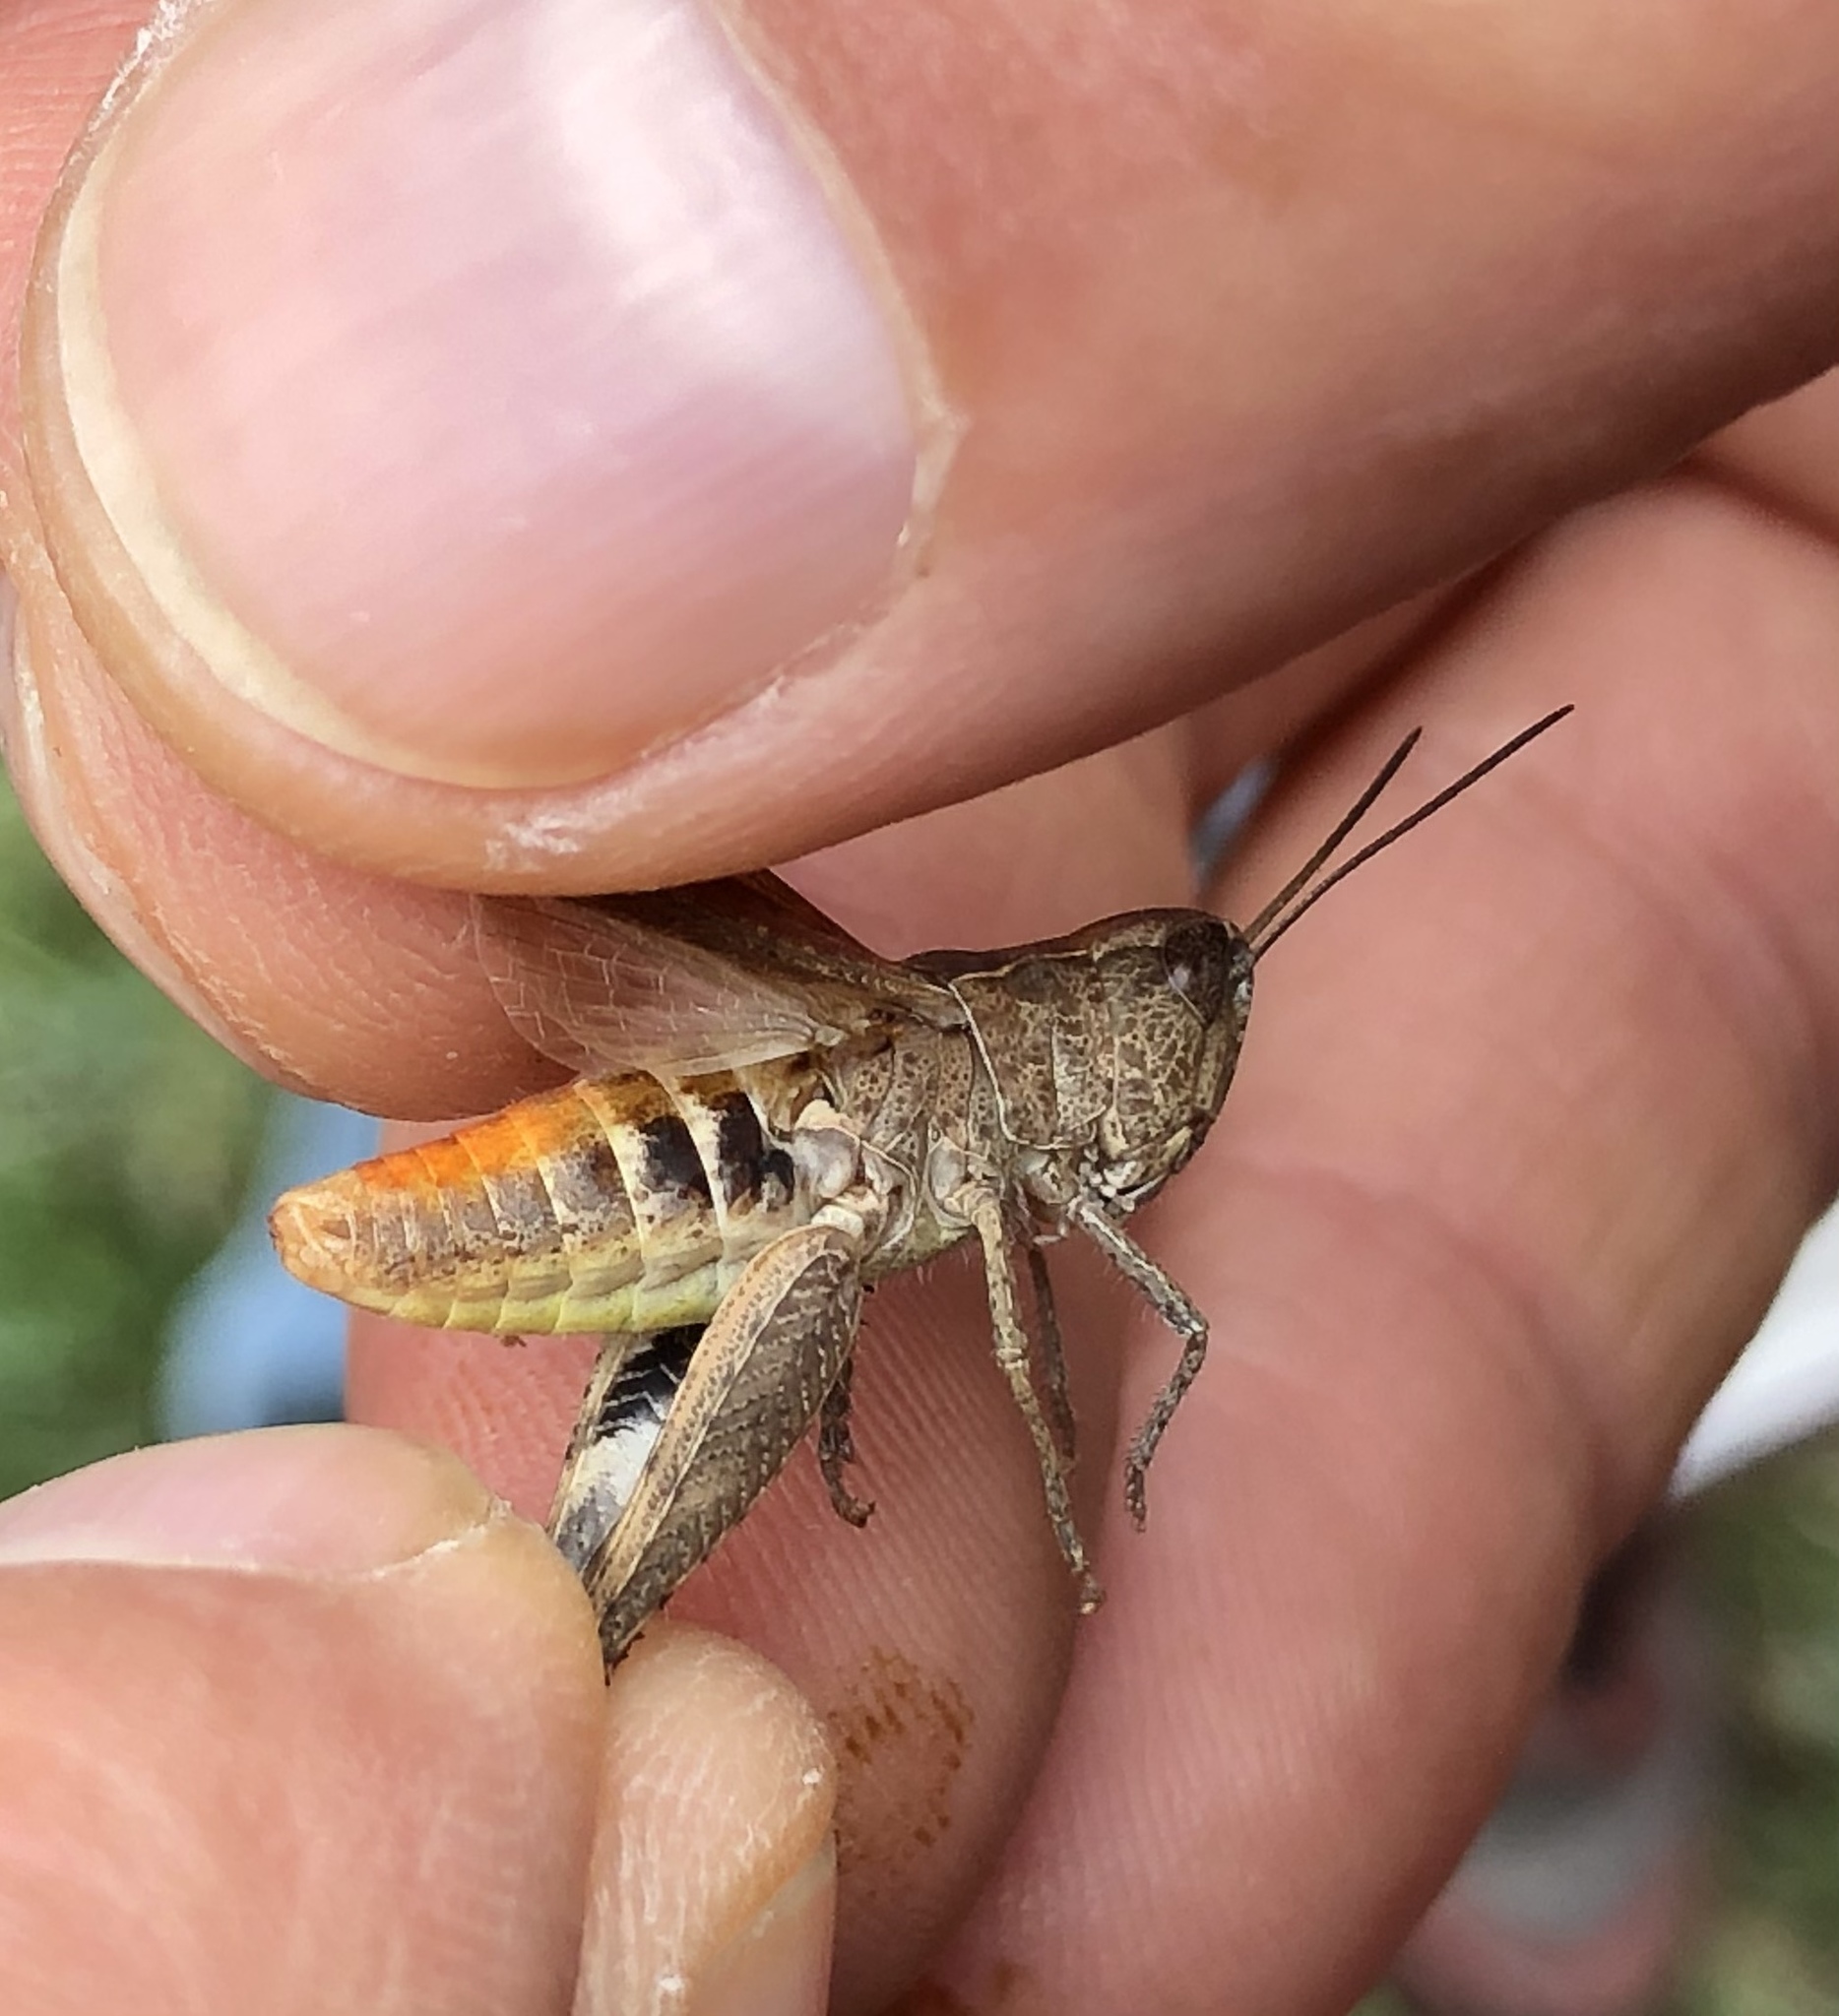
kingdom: Animalia
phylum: Arthropoda
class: Insecta
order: Orthoptera
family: Acrididae
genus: Chorthippus
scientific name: Chorthippus vagans
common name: Heath grasshopper
